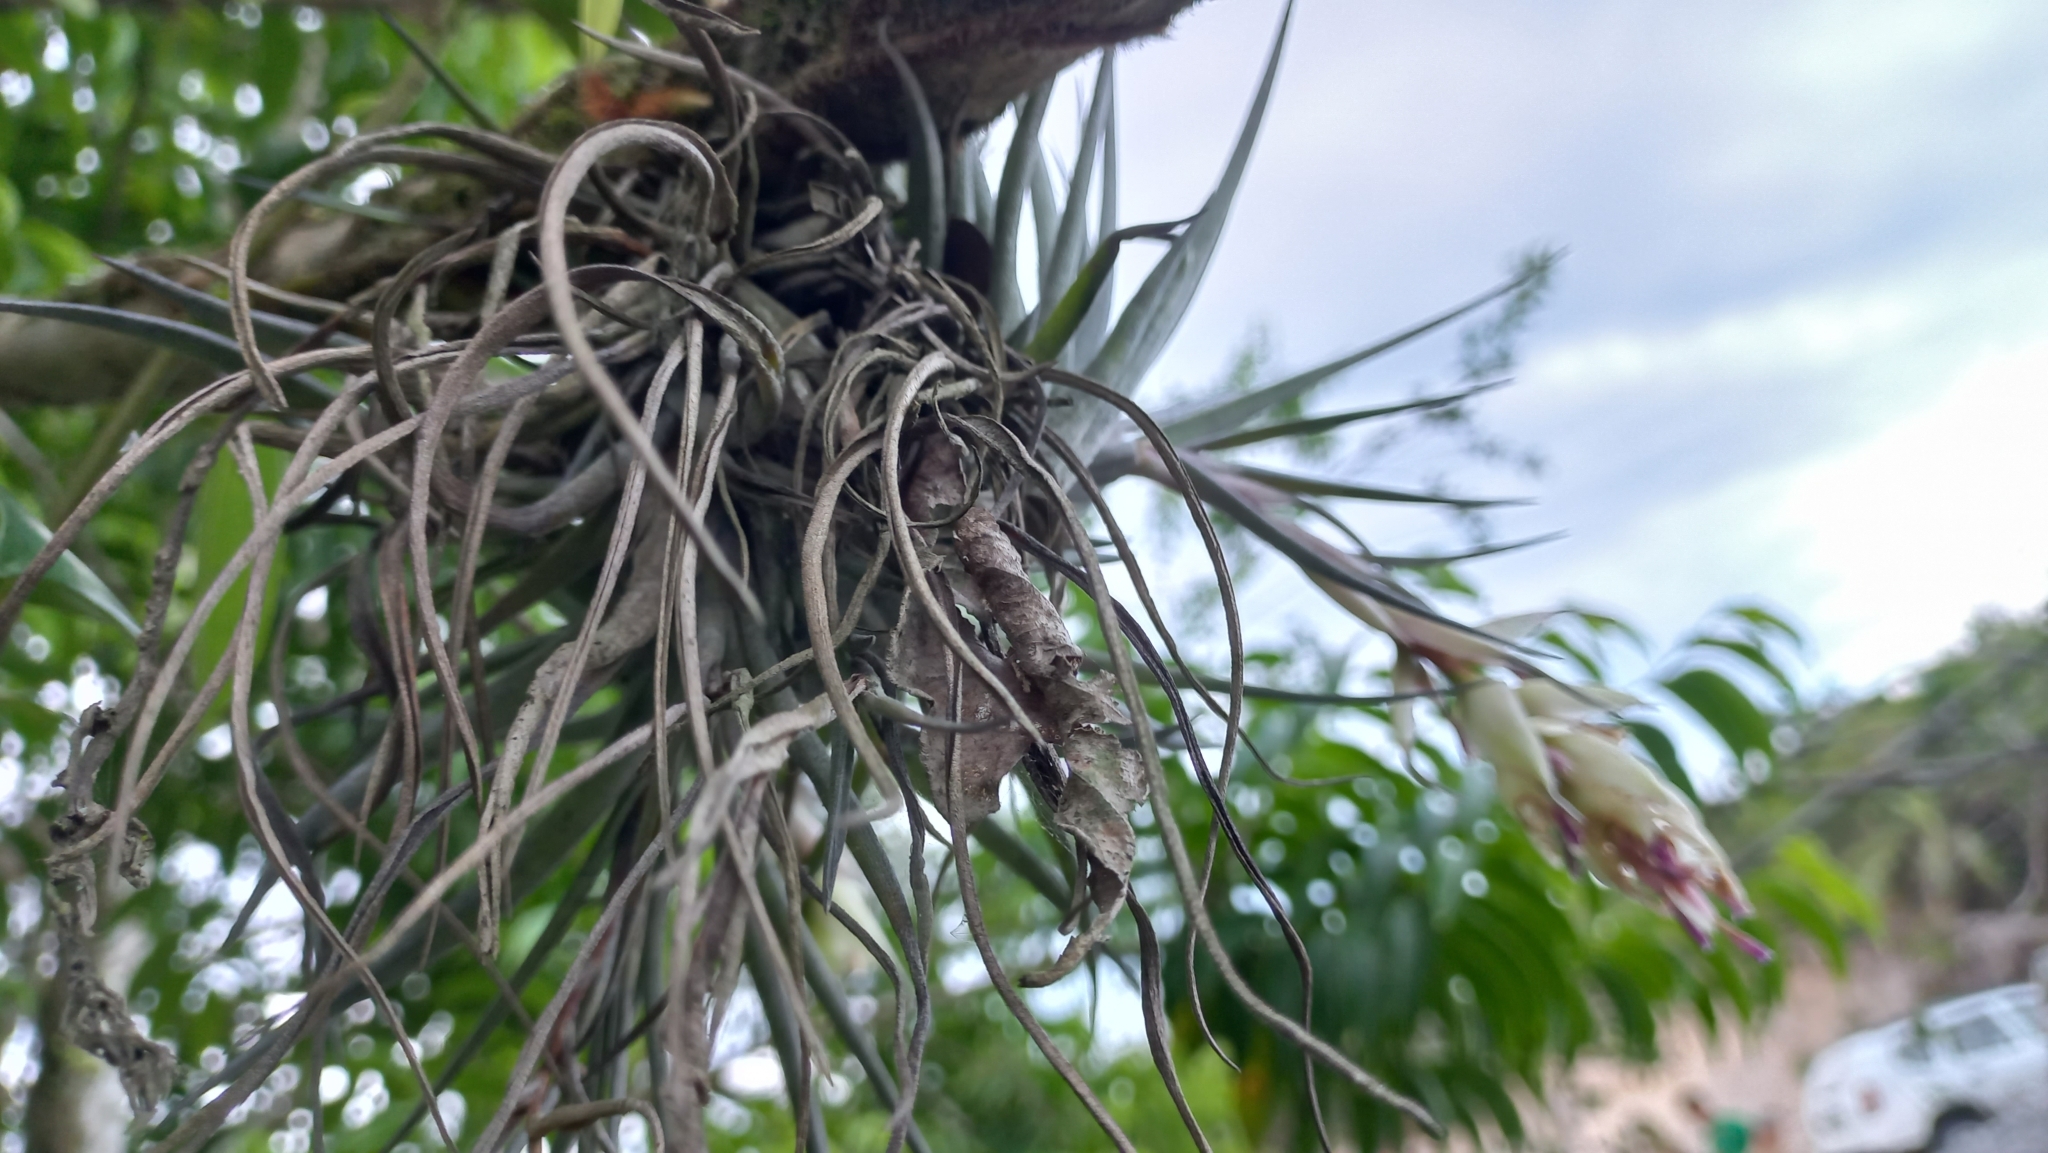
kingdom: Plantae
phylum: Tracheophyta
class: Liliopsida
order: Poales
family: Bromeliaceae
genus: Tillandsia
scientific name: Tillandsia stricta
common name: Airplant
